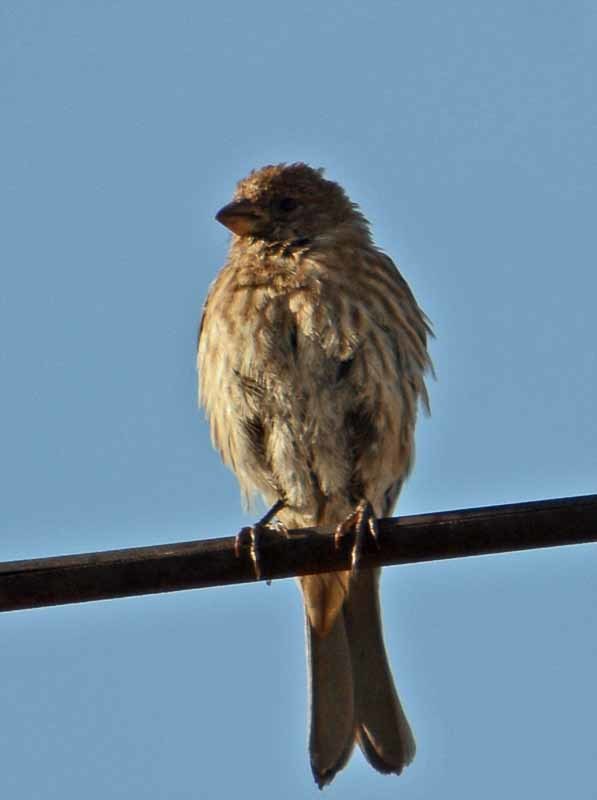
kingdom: Animalia
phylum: Chordata
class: Aves
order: Passeriformes
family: Fringillidae
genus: Haemorhous
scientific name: Haemorhous mexicanus
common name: House finch
